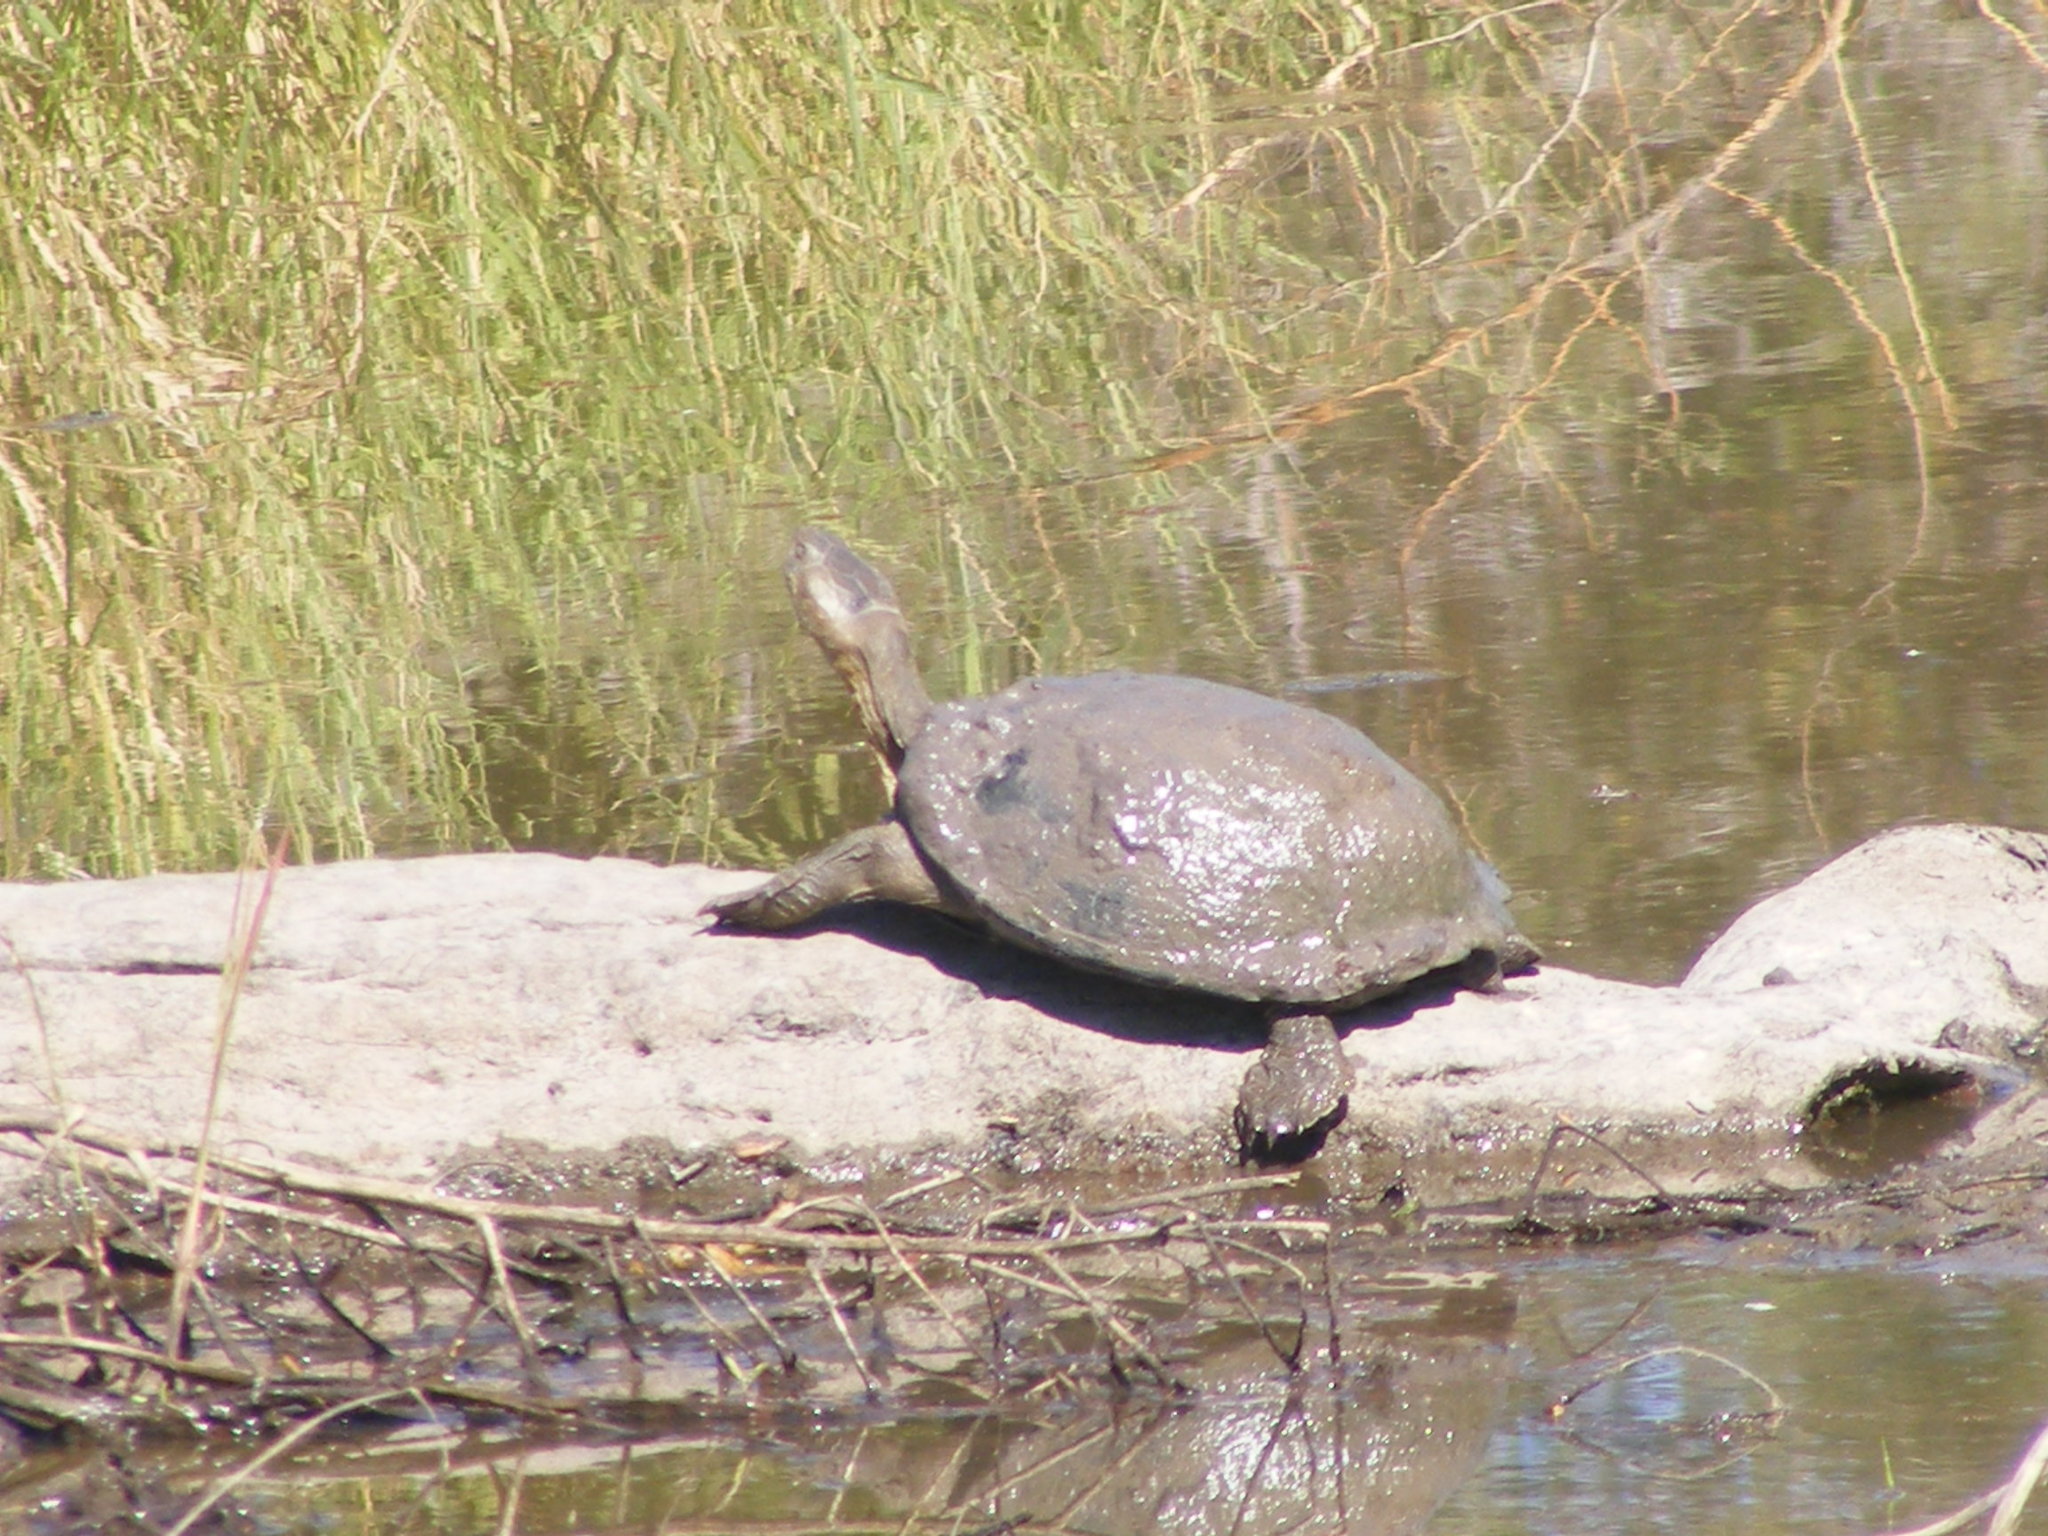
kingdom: Animalia
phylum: Chordata
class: Testudines
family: Pelomedusidae
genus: Pelusios
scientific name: Pelusios sinuatus
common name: Serrated hinged terrapin
